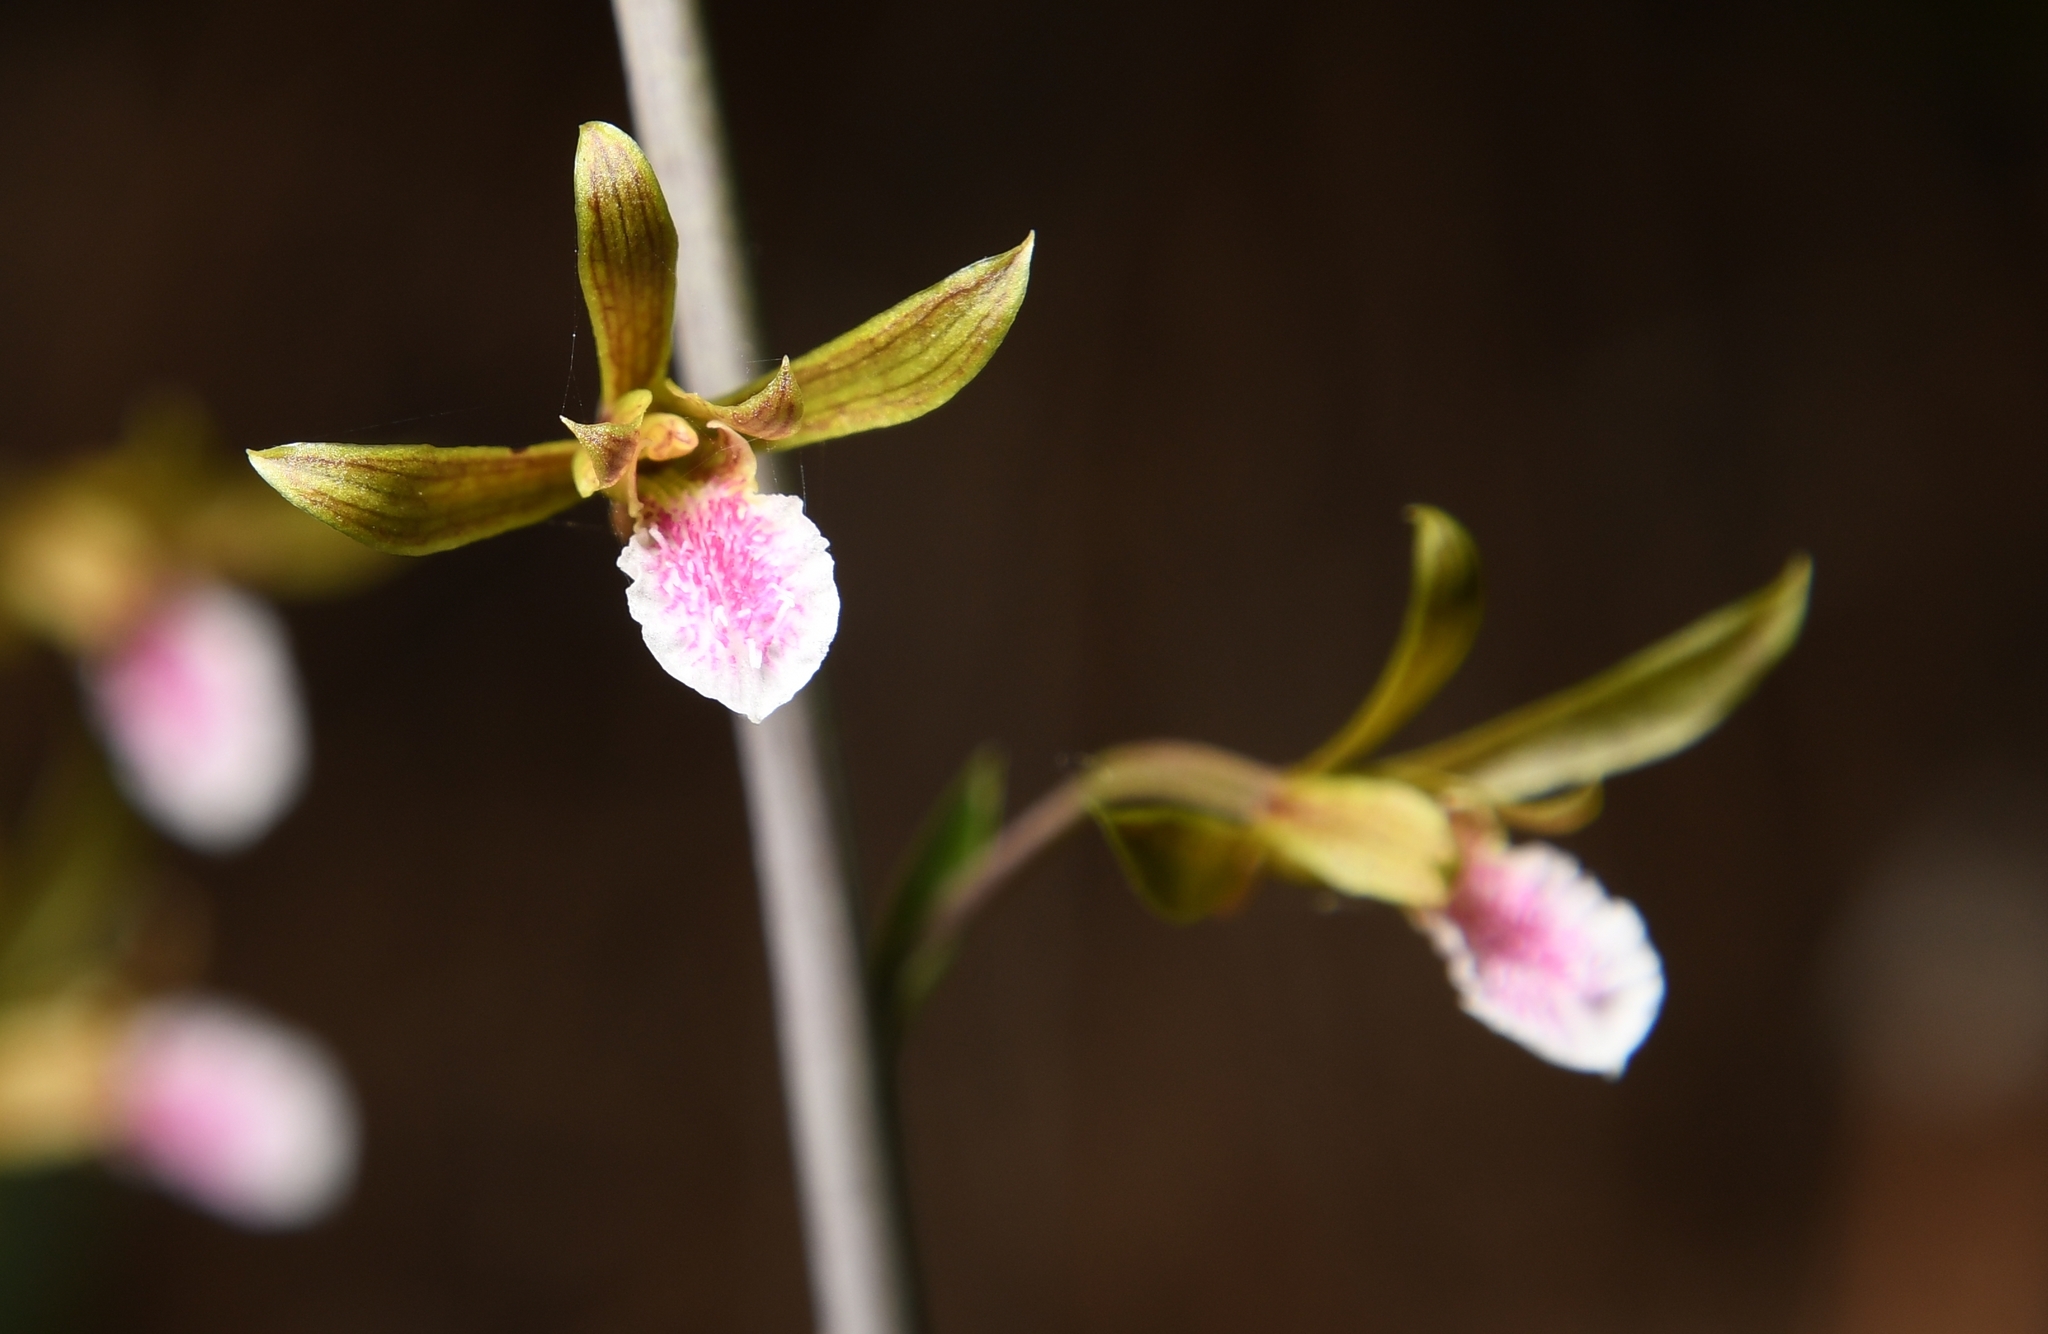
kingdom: Plantae
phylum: Tracheophyta
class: Liliopsida
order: Asparagales
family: Orchidaceae
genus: Eulophia
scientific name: Eulophia graminea
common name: Orchid
